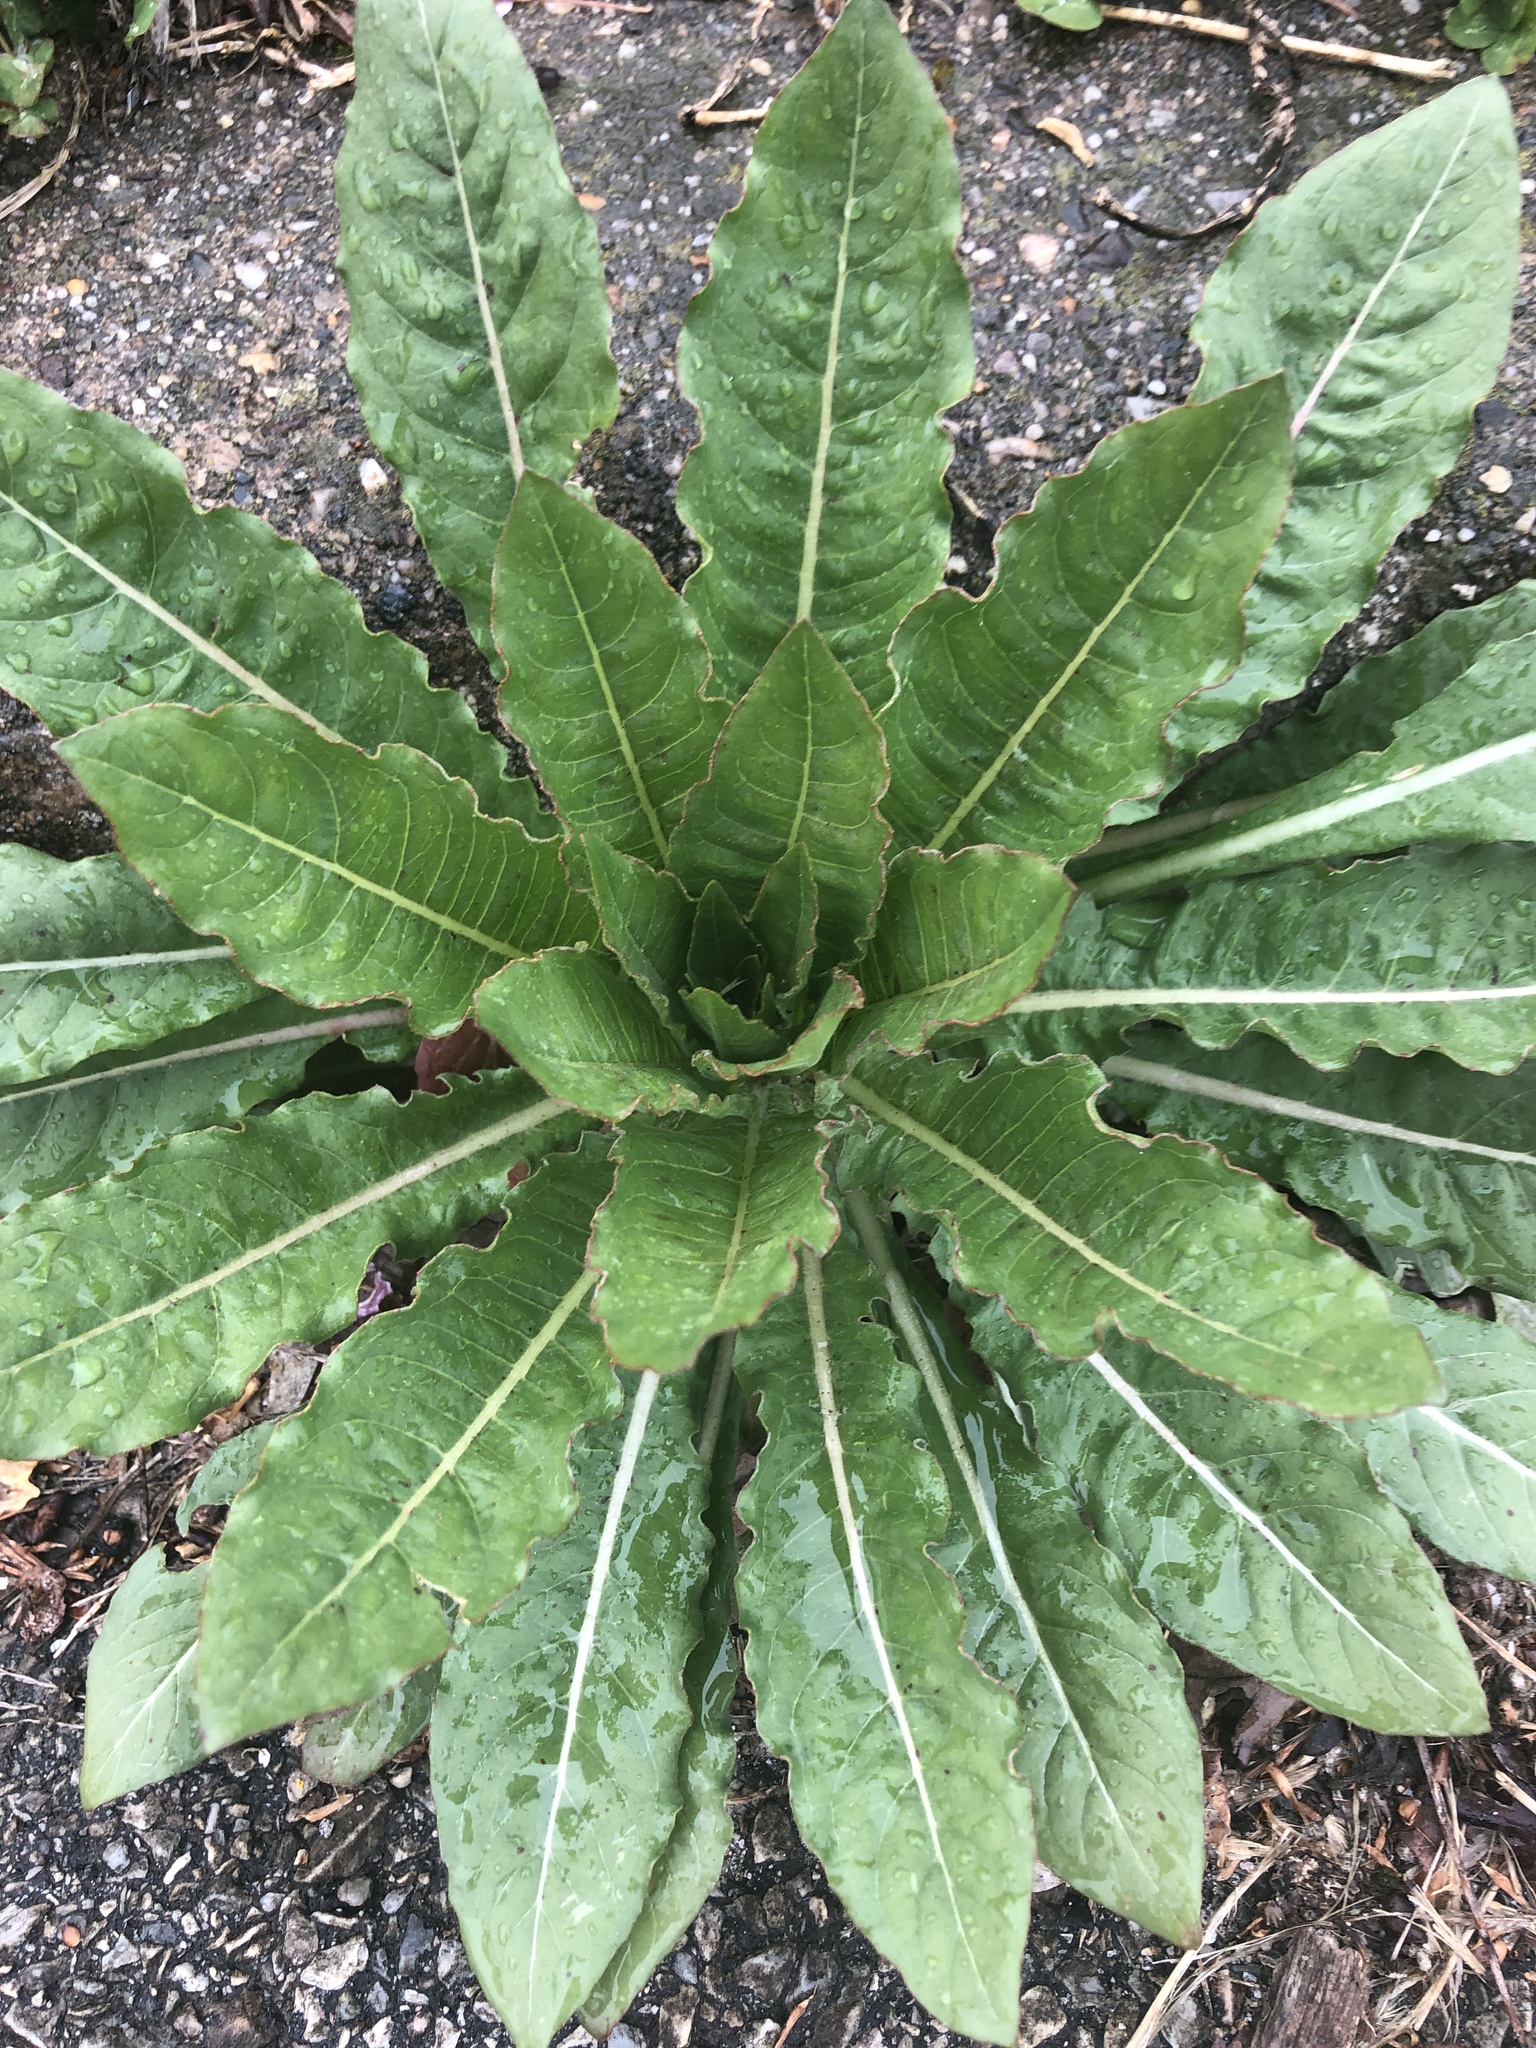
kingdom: Plantae
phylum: Tracheophyta
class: Magnoliopsida
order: Myrtales
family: Onagraceae
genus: Oenothera
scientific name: Oenothera biennis
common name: Common evening-primrose
